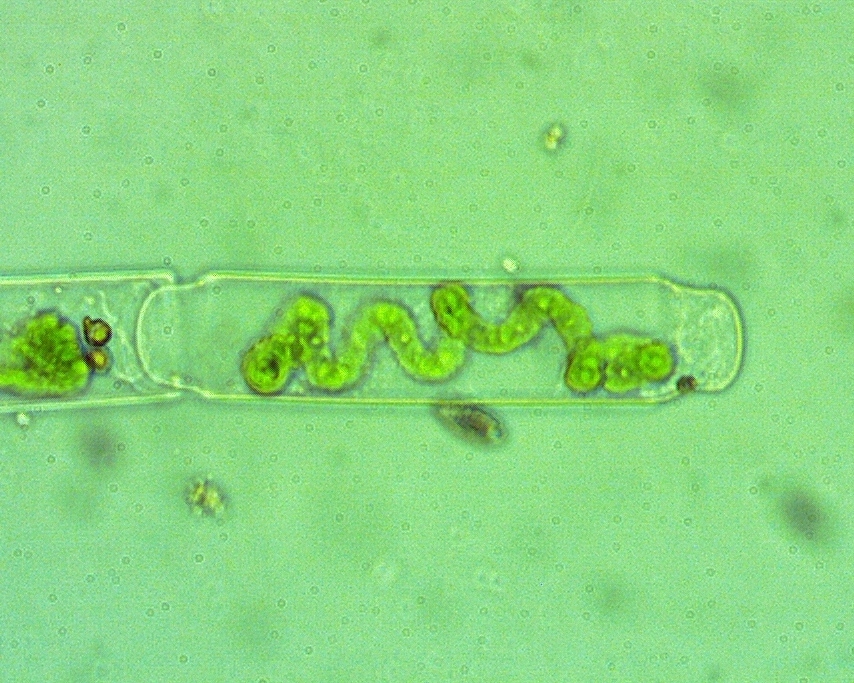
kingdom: Plantae
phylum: Charophyta
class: Zygnematophyceae
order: Zygnematales
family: Zygnemataceae
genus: Spirogyra
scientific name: Spirogyra
